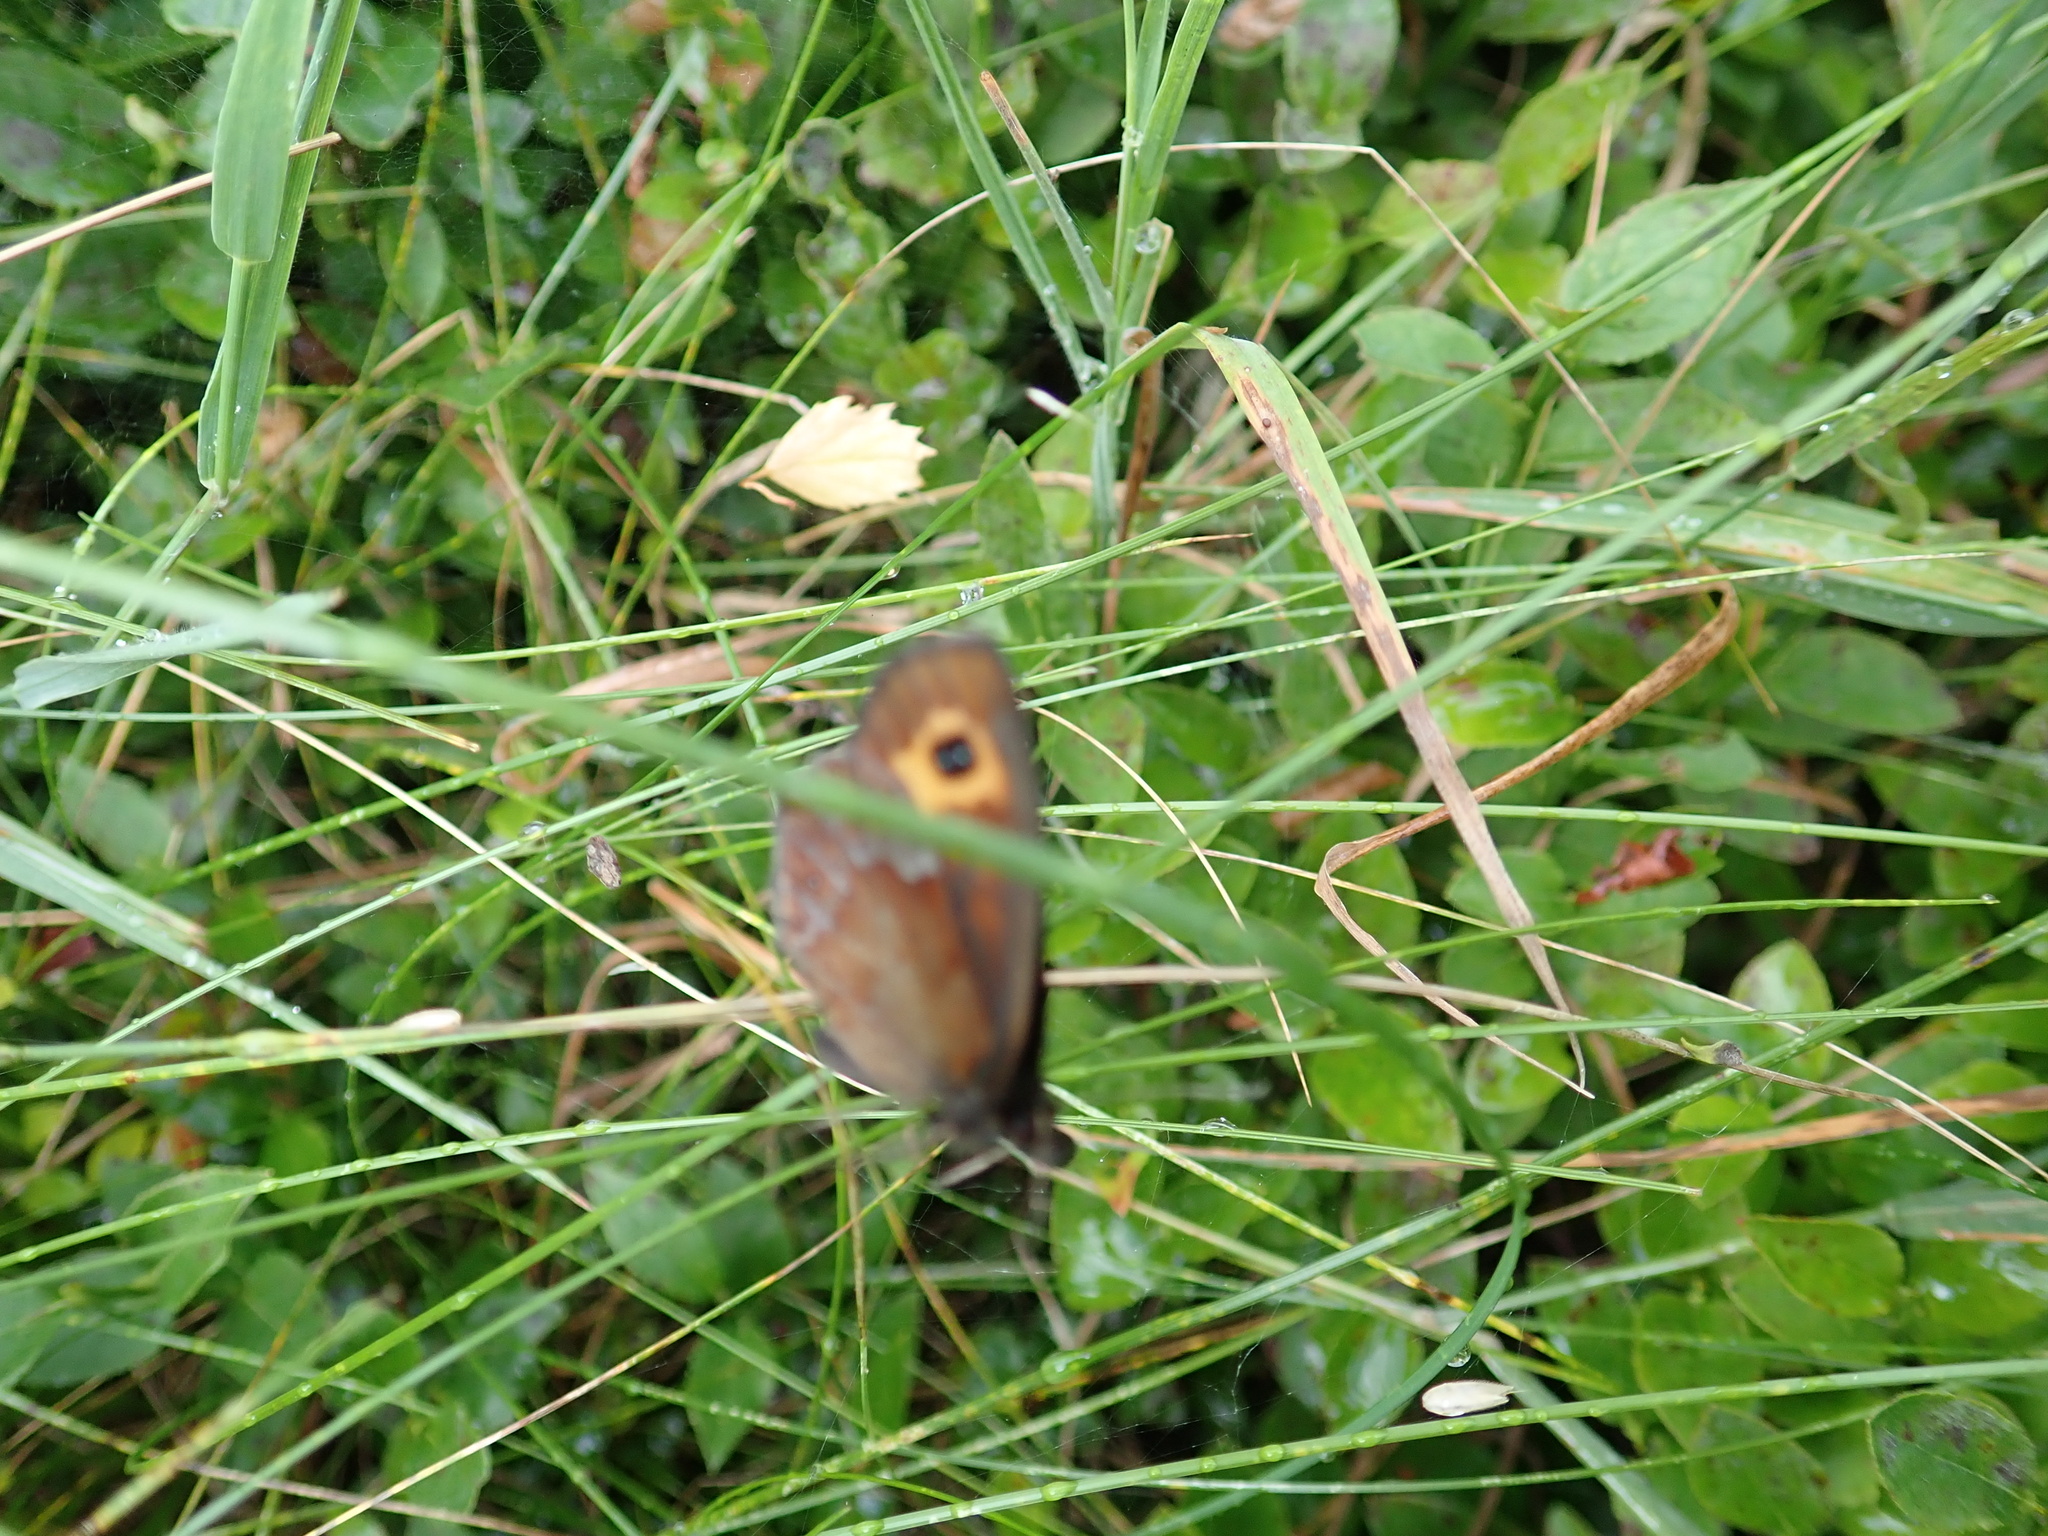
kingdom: Animalia
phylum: Arthropoda
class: Insecta
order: Lepidoptera
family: Nymphalidae
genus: Erebia
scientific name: Erebia aethiops
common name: Scotch argus
